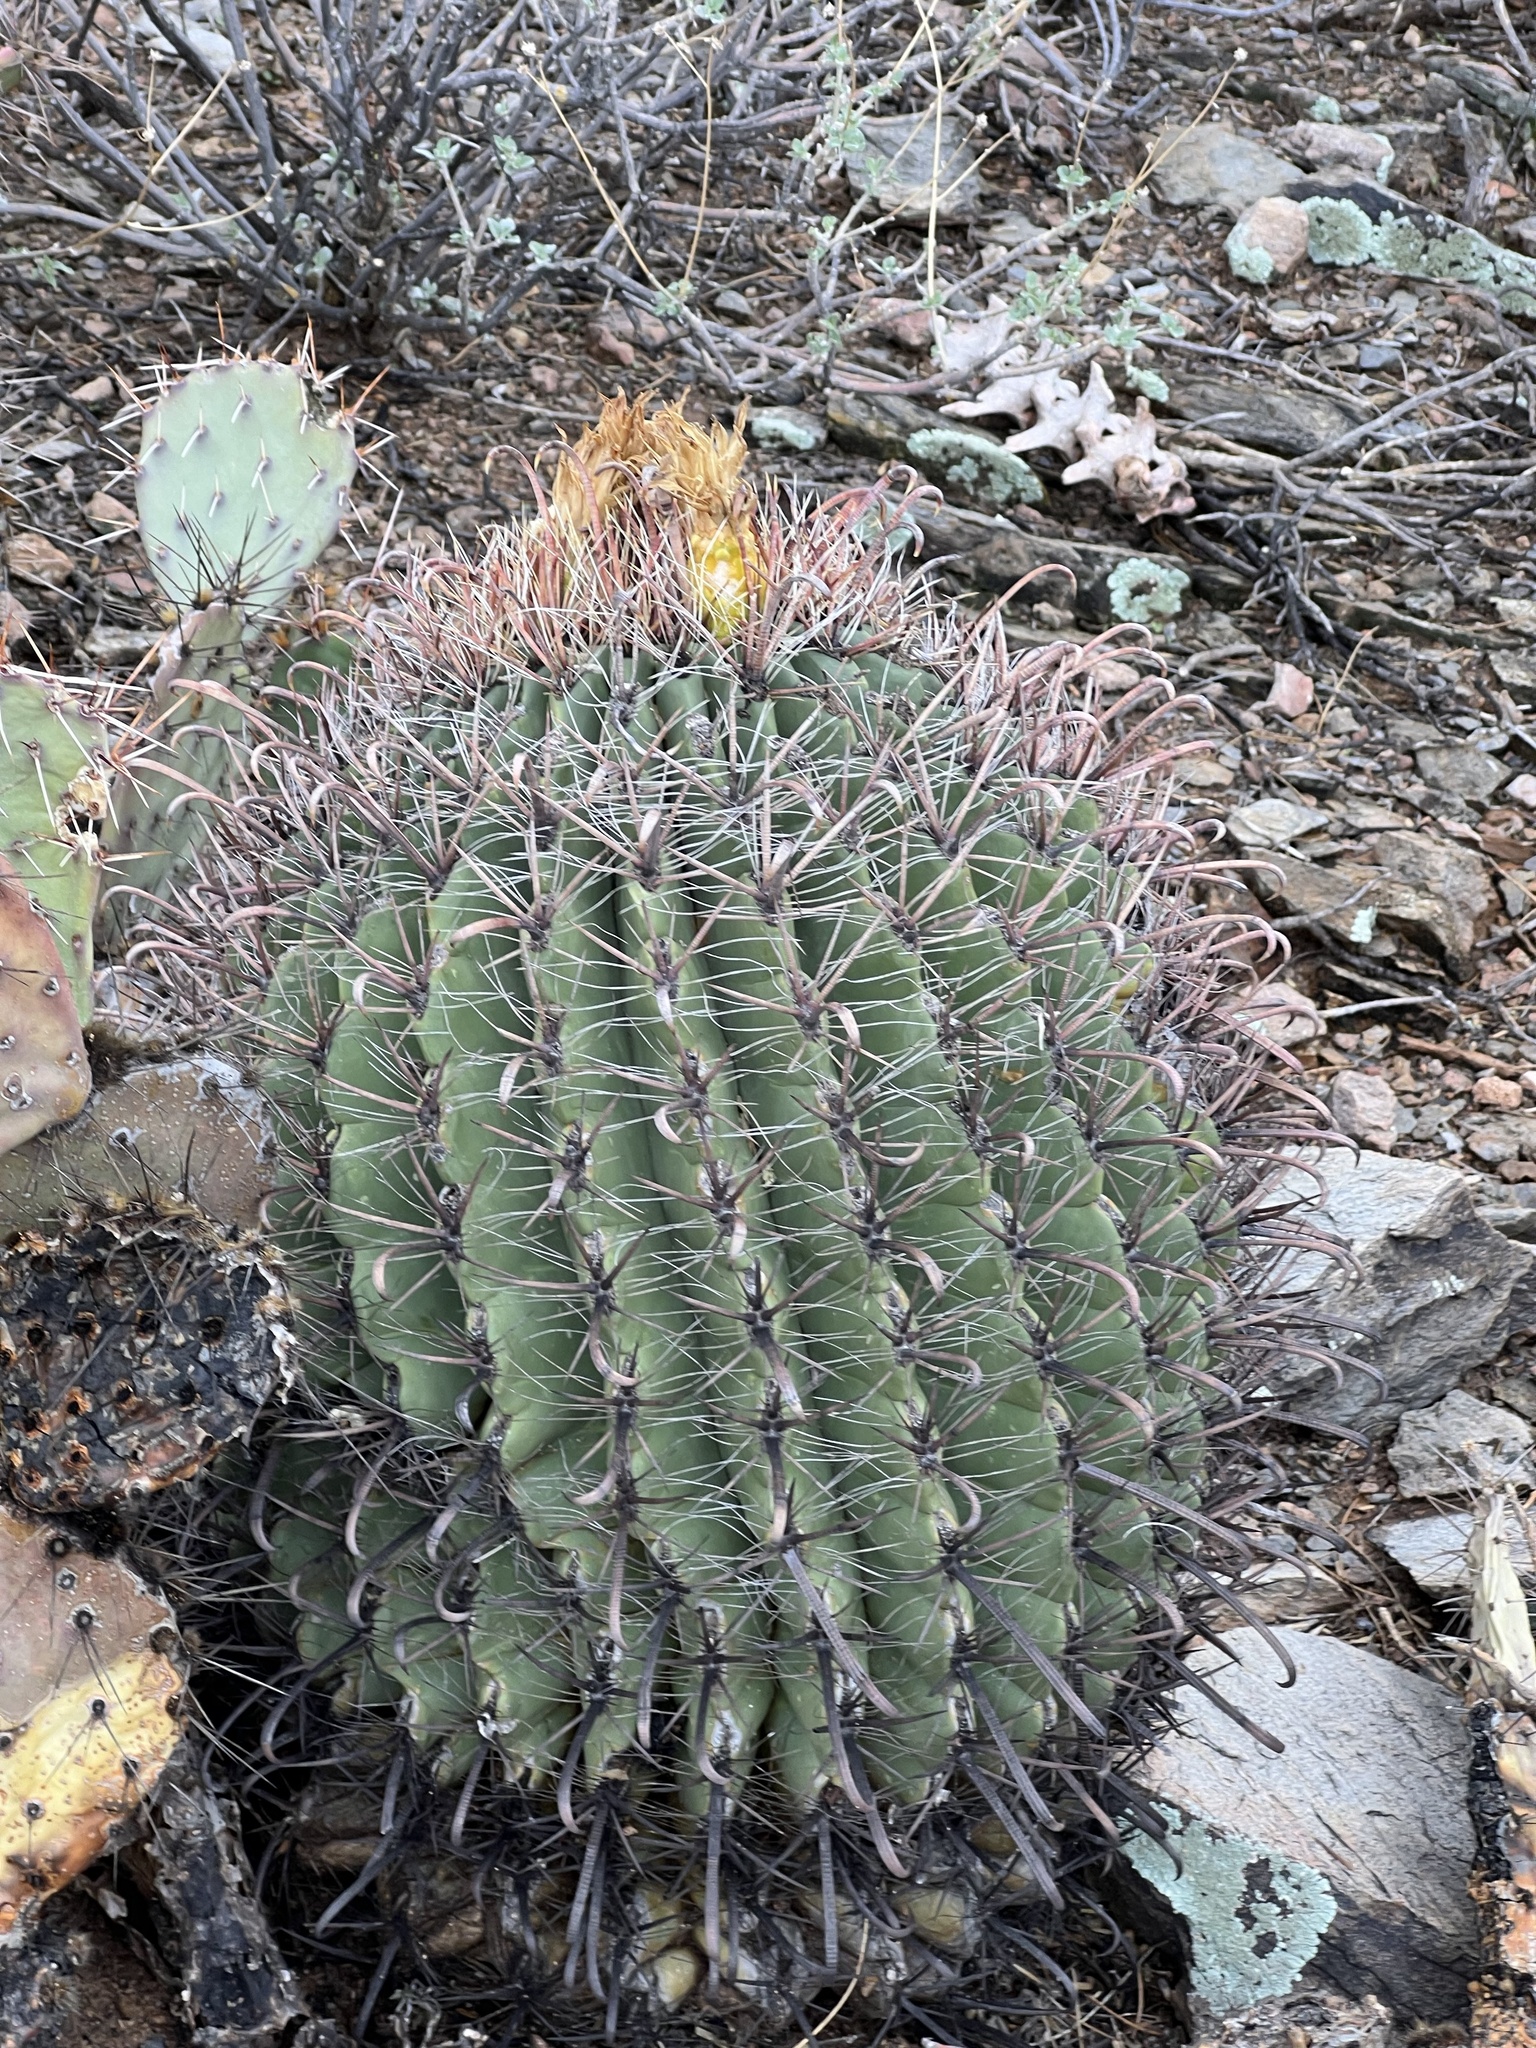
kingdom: Plantae
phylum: Tracheophyta
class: Magnoliopsida
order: Caryophyllales
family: Cactaceae
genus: Ferocactus
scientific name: Ferocactus wislizeni
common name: Candy barrel cactus
